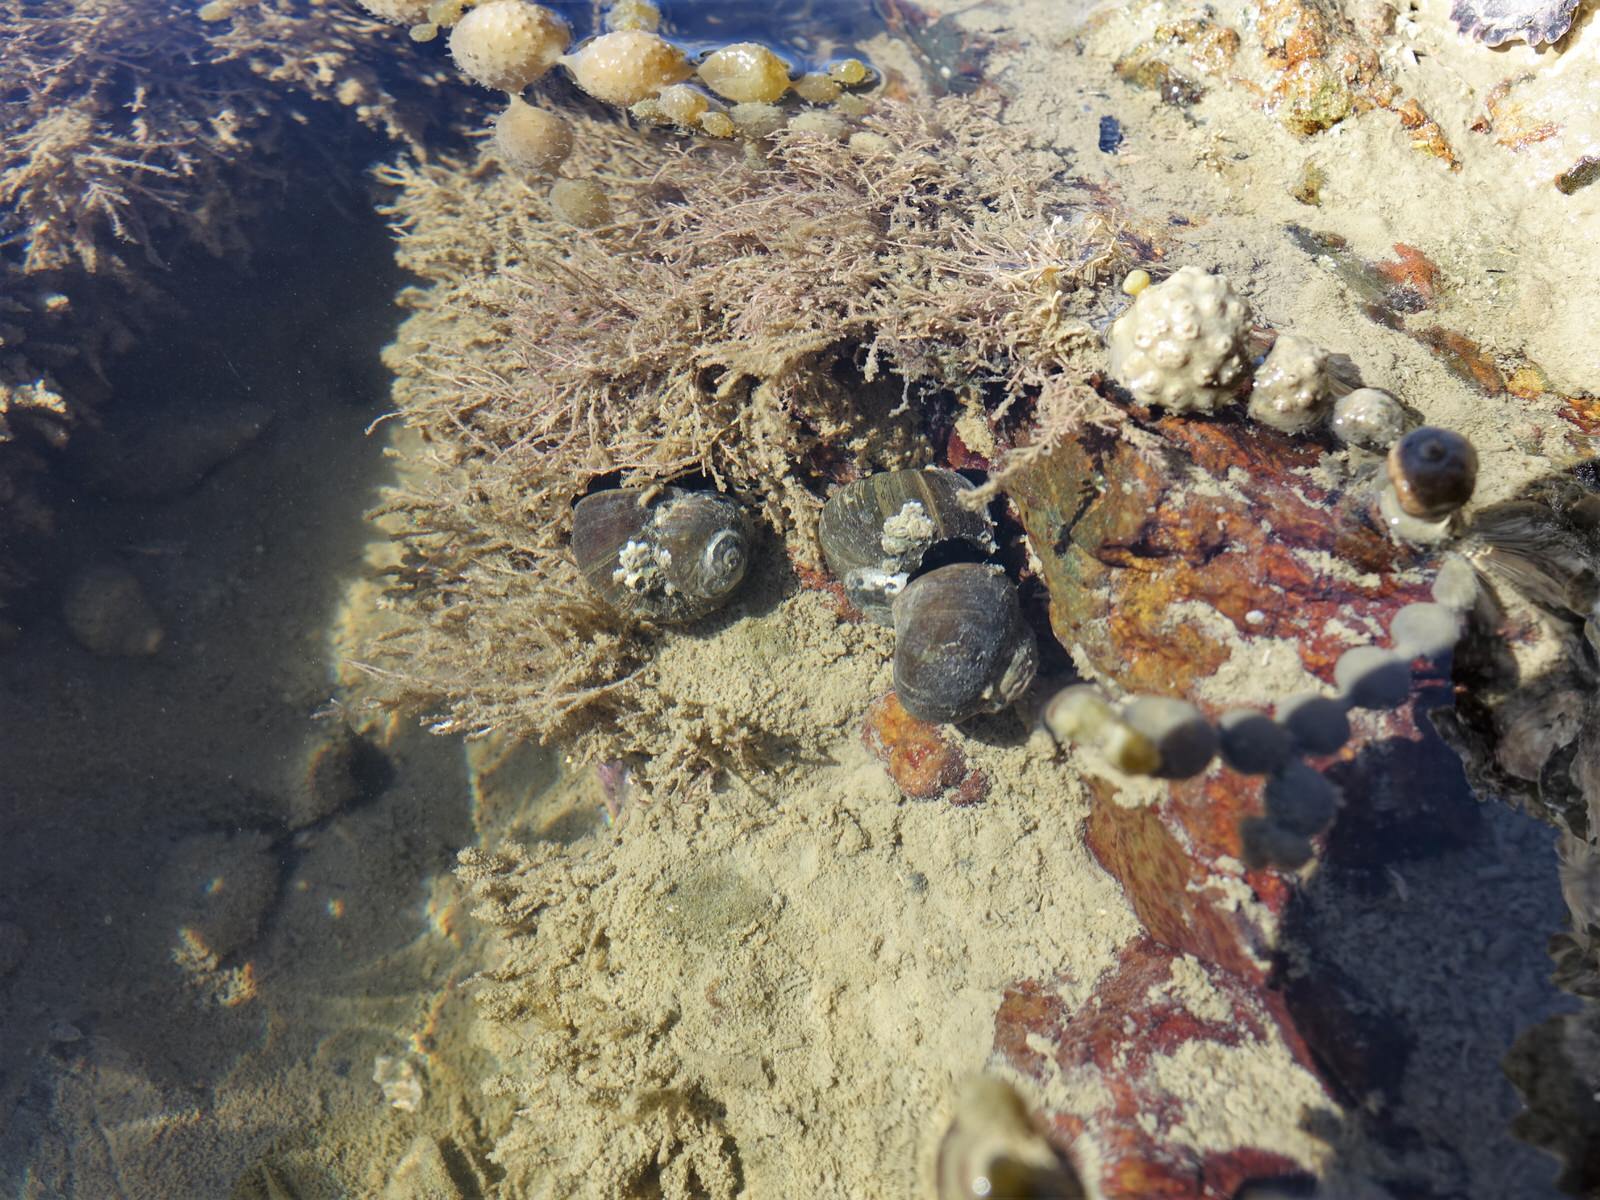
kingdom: Animalia
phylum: Mollusca
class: Gastropoda
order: Trochida
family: Turbinidae
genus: Lunella
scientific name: Lunella smaragda
